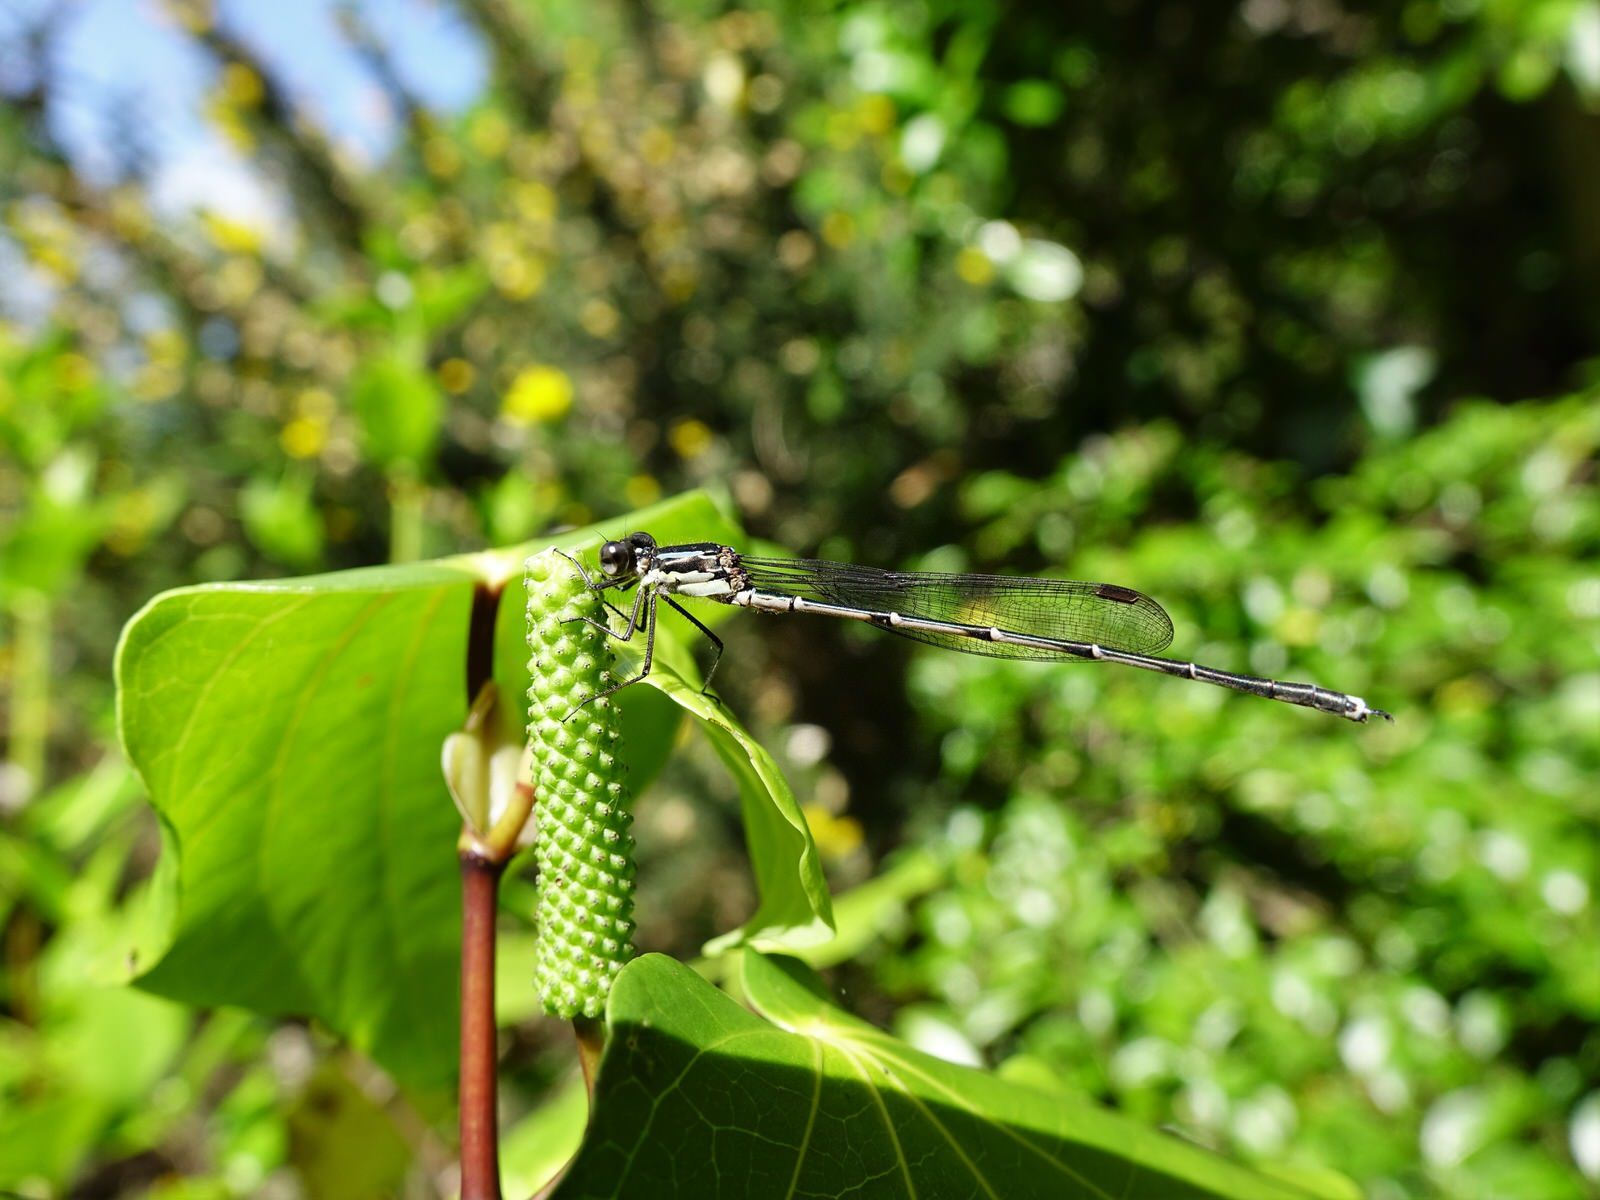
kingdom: Animalia
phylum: Arthropoda
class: Insecta
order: Odonata
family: Lestidae
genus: Austrolestes
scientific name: Austrolestes colensonis
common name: Blue damselfly
